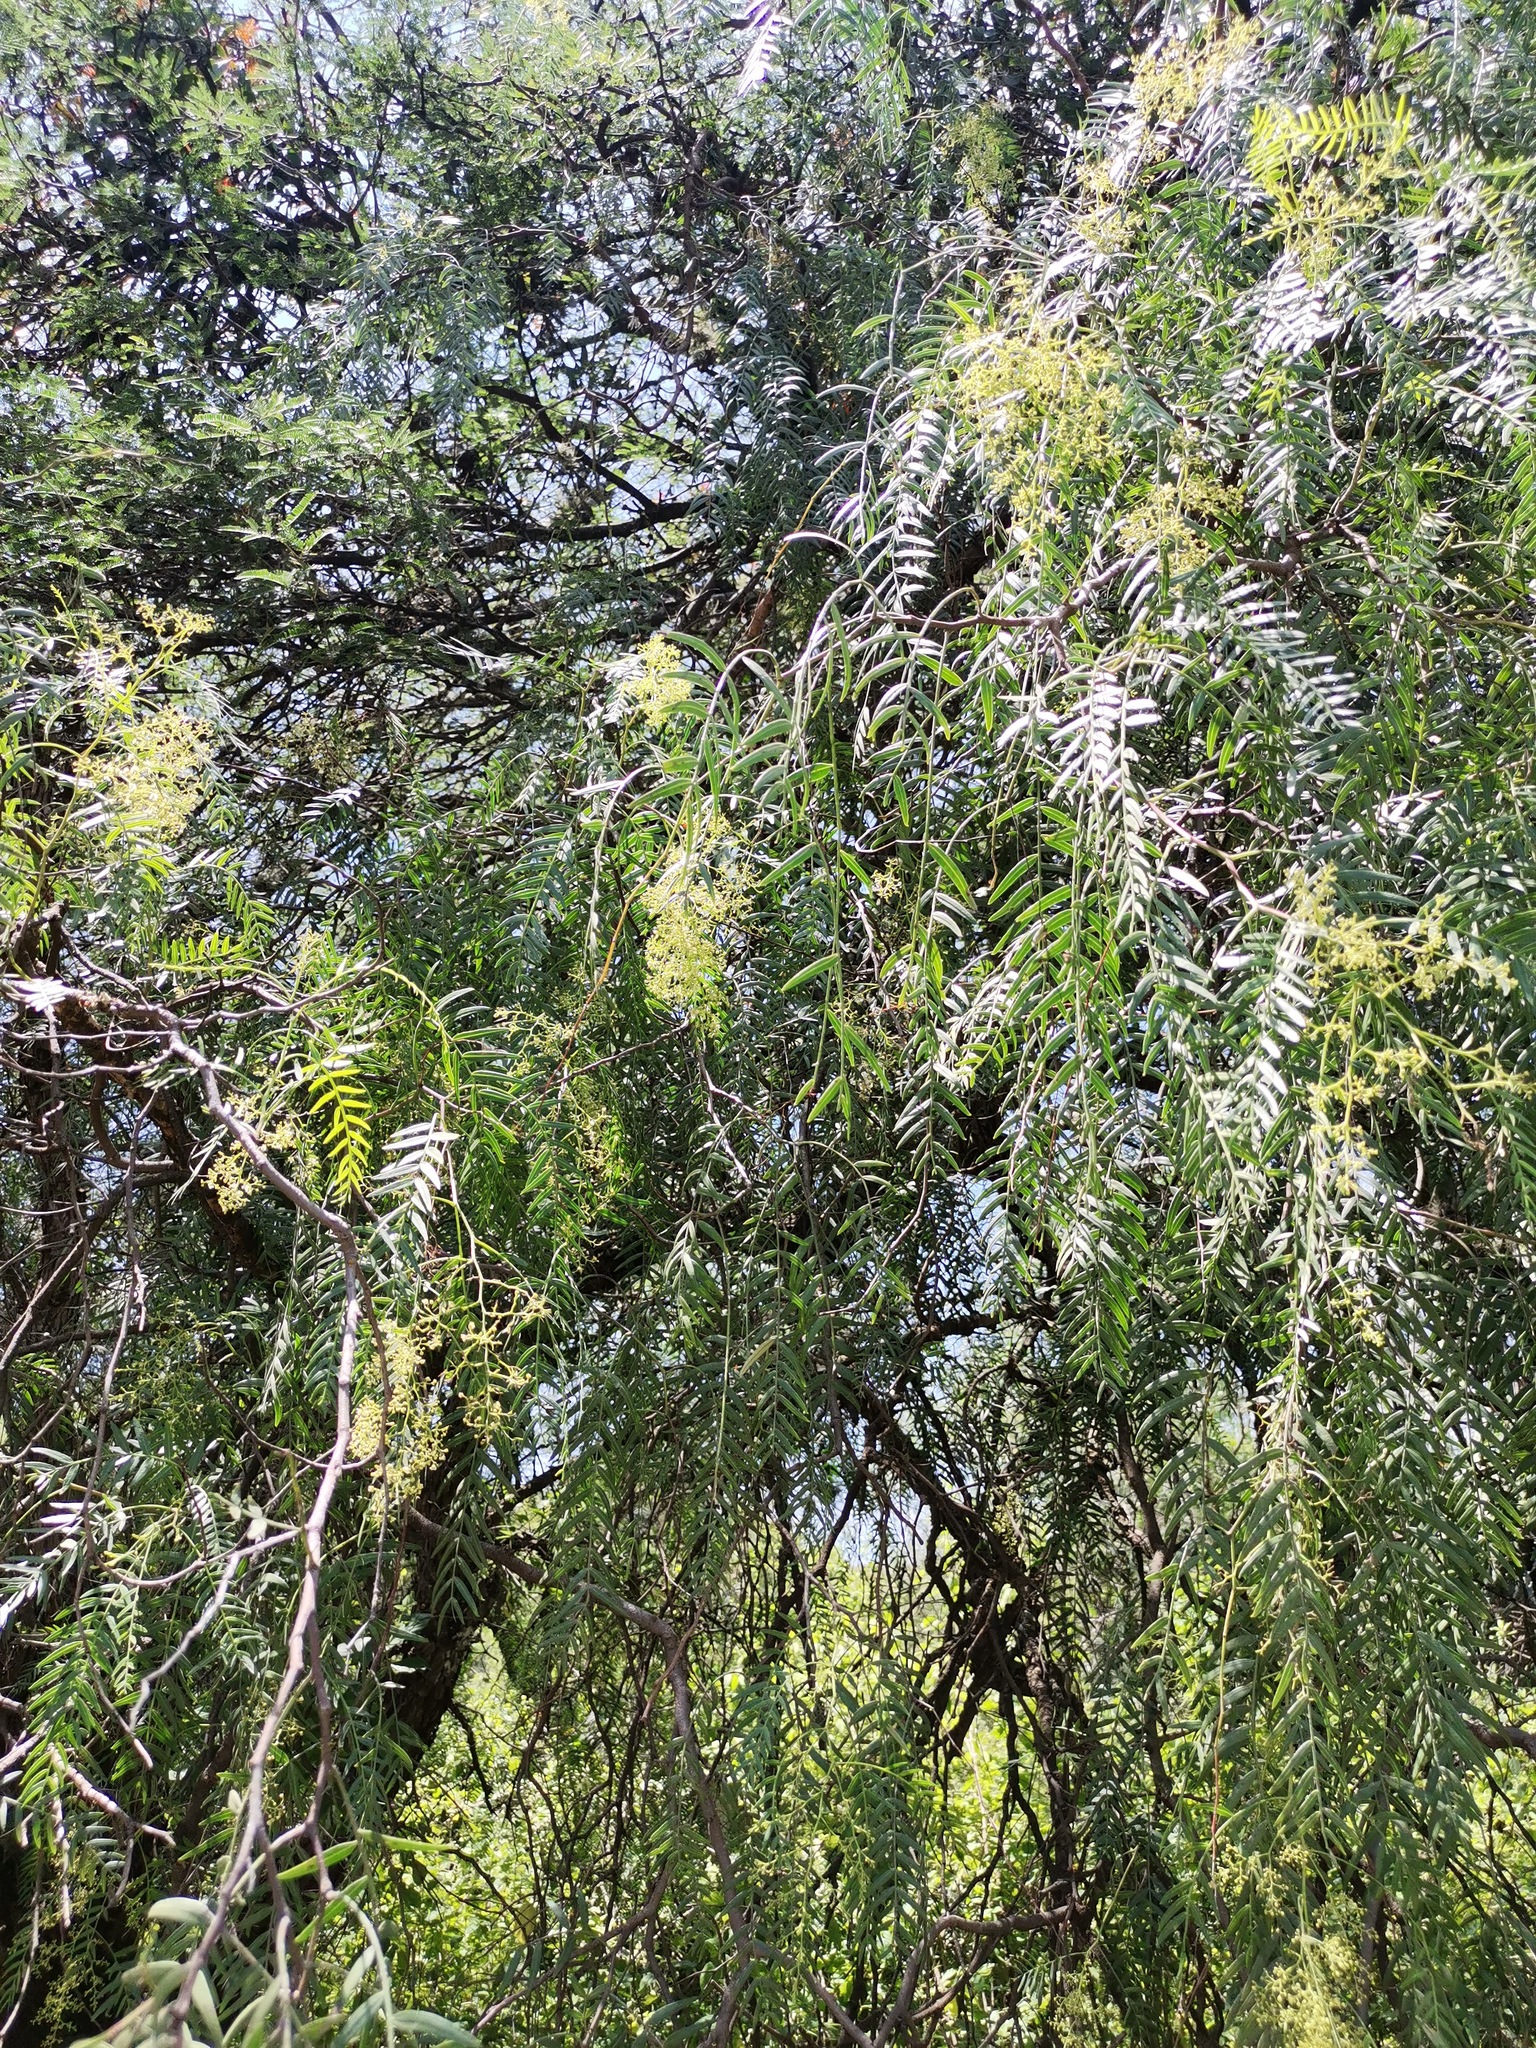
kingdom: Plantae
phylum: Tracheophyta
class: Magnoliopsida
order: Sapindales
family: Anacardiaceae
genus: Schinus
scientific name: Schinus molle
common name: Peruvian peppertree
